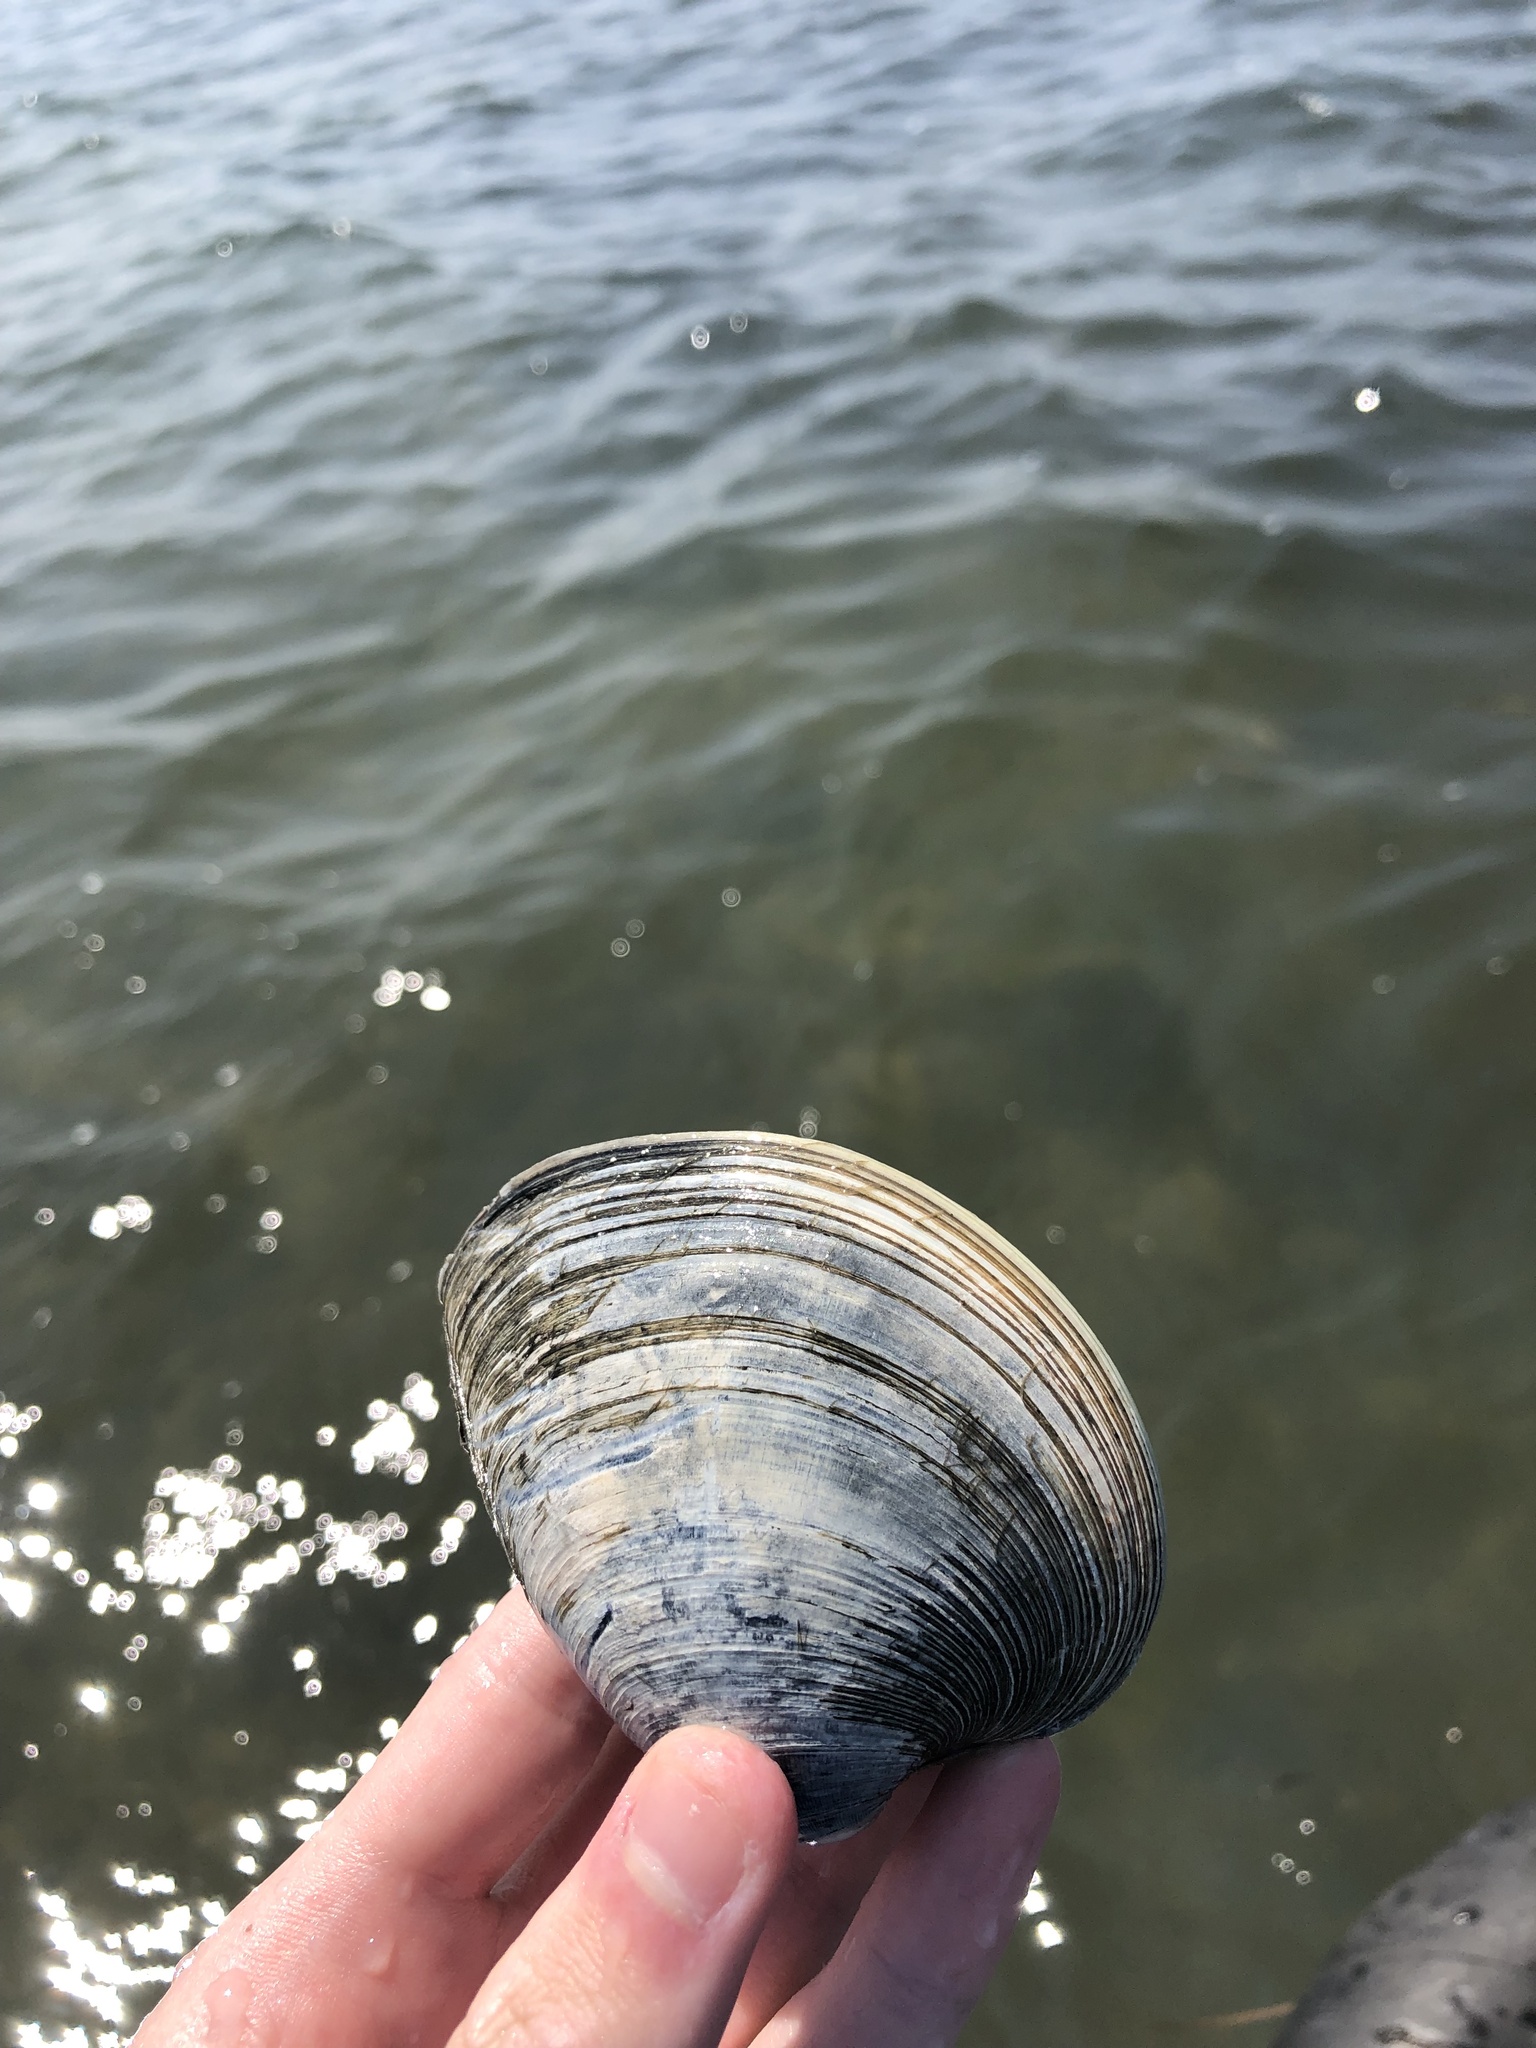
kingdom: Animalia
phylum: Mollusca
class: Bivalvia
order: Venerida
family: Veneridae
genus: Mercenaria
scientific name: Mercenaria mercenaria
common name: American hard-shelled clam
